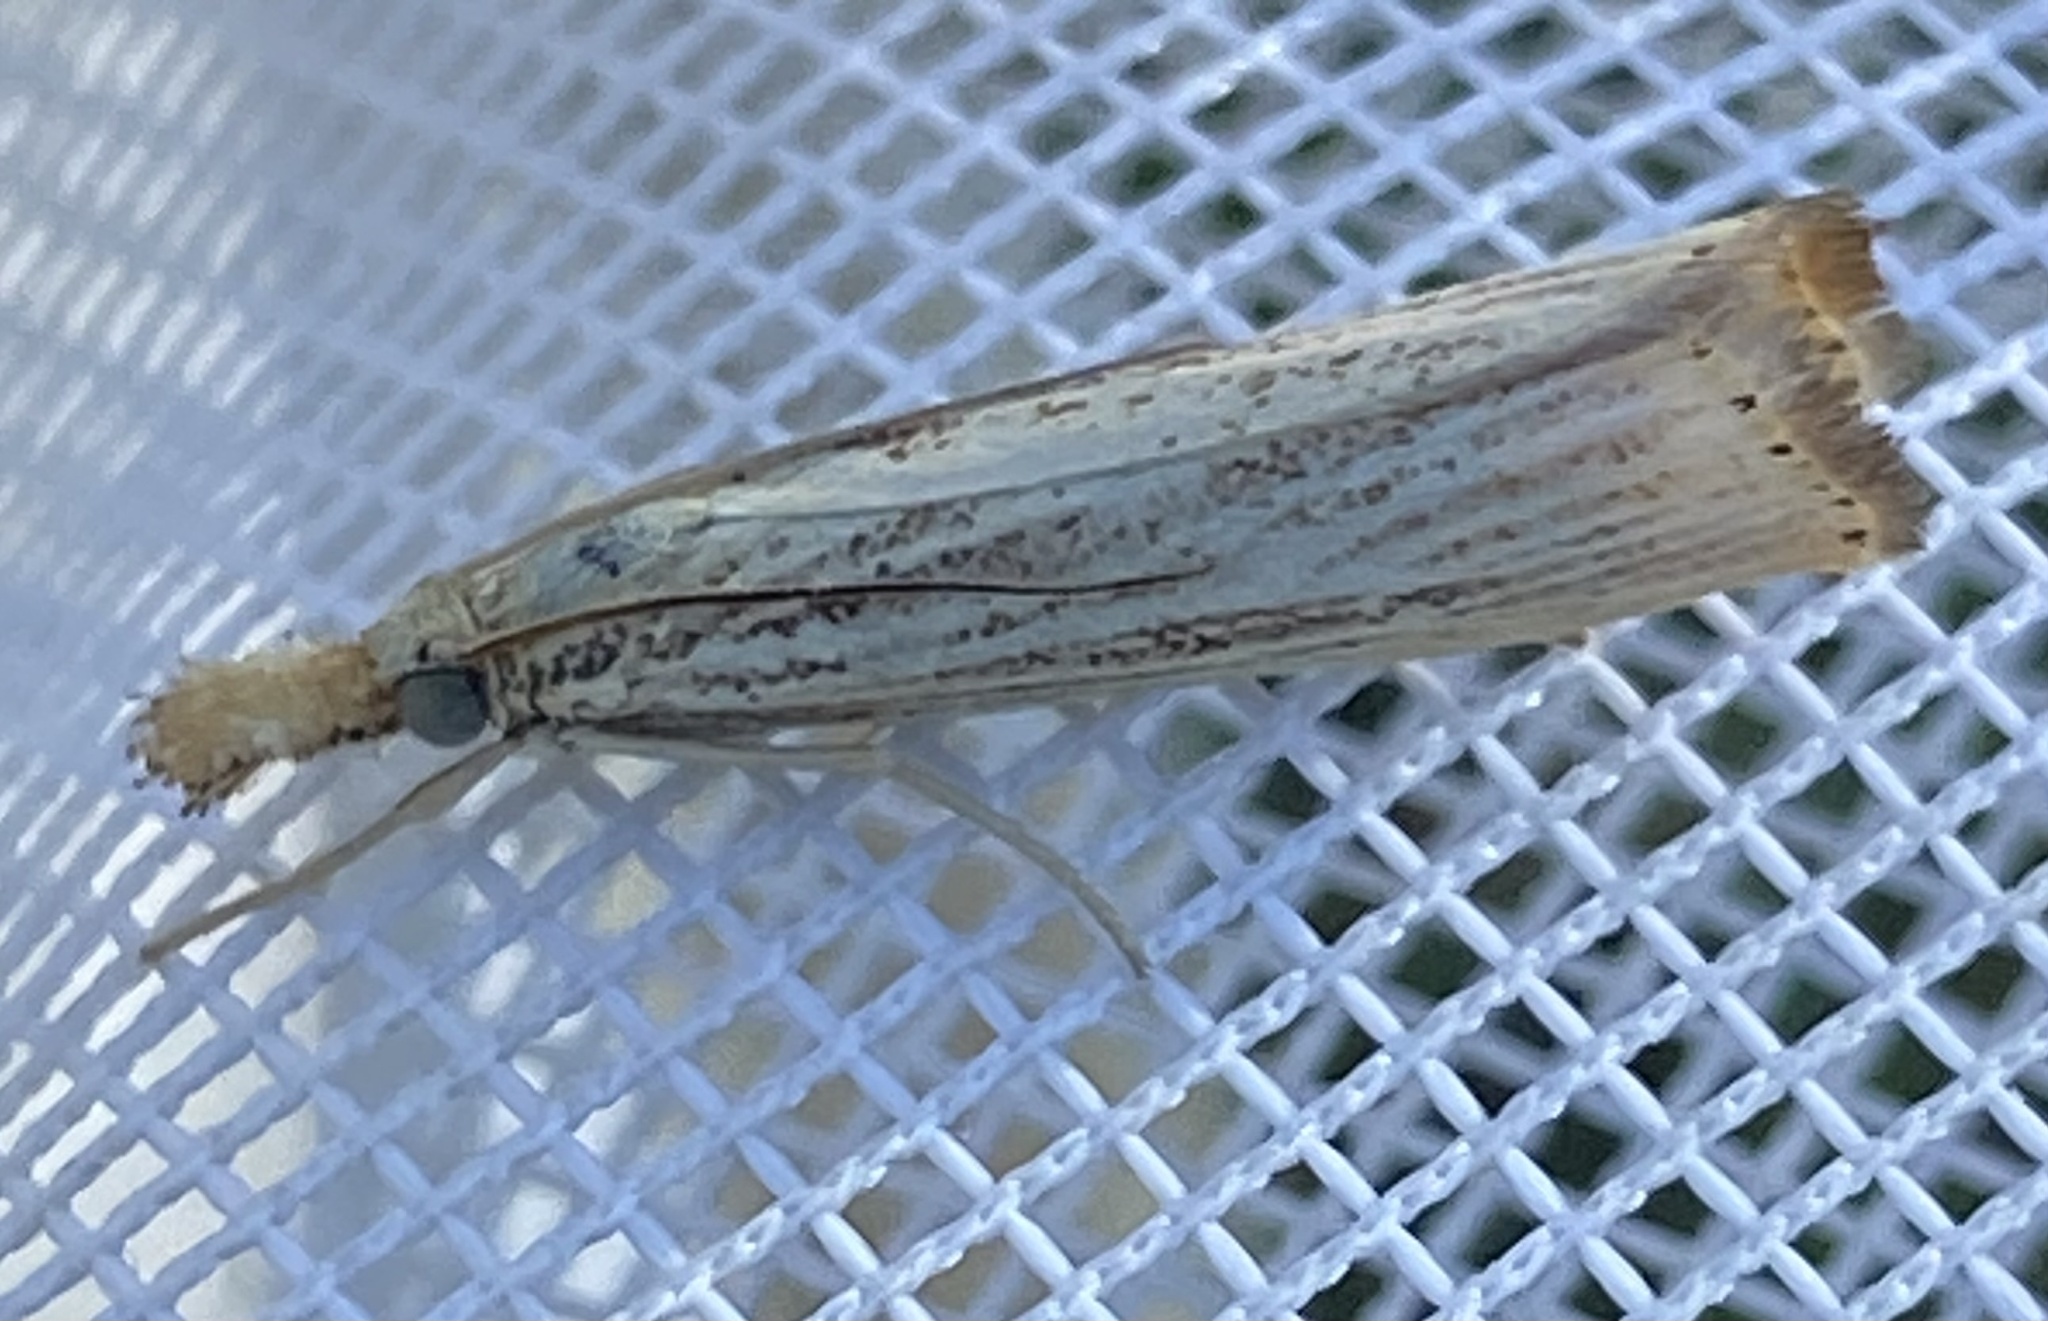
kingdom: Animalia
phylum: Arthropoda
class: Insecta
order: Lepidoptera
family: Crambidae
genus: Agriphila
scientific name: Agriphila vulgivagellus
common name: Vagabond crambus moth
